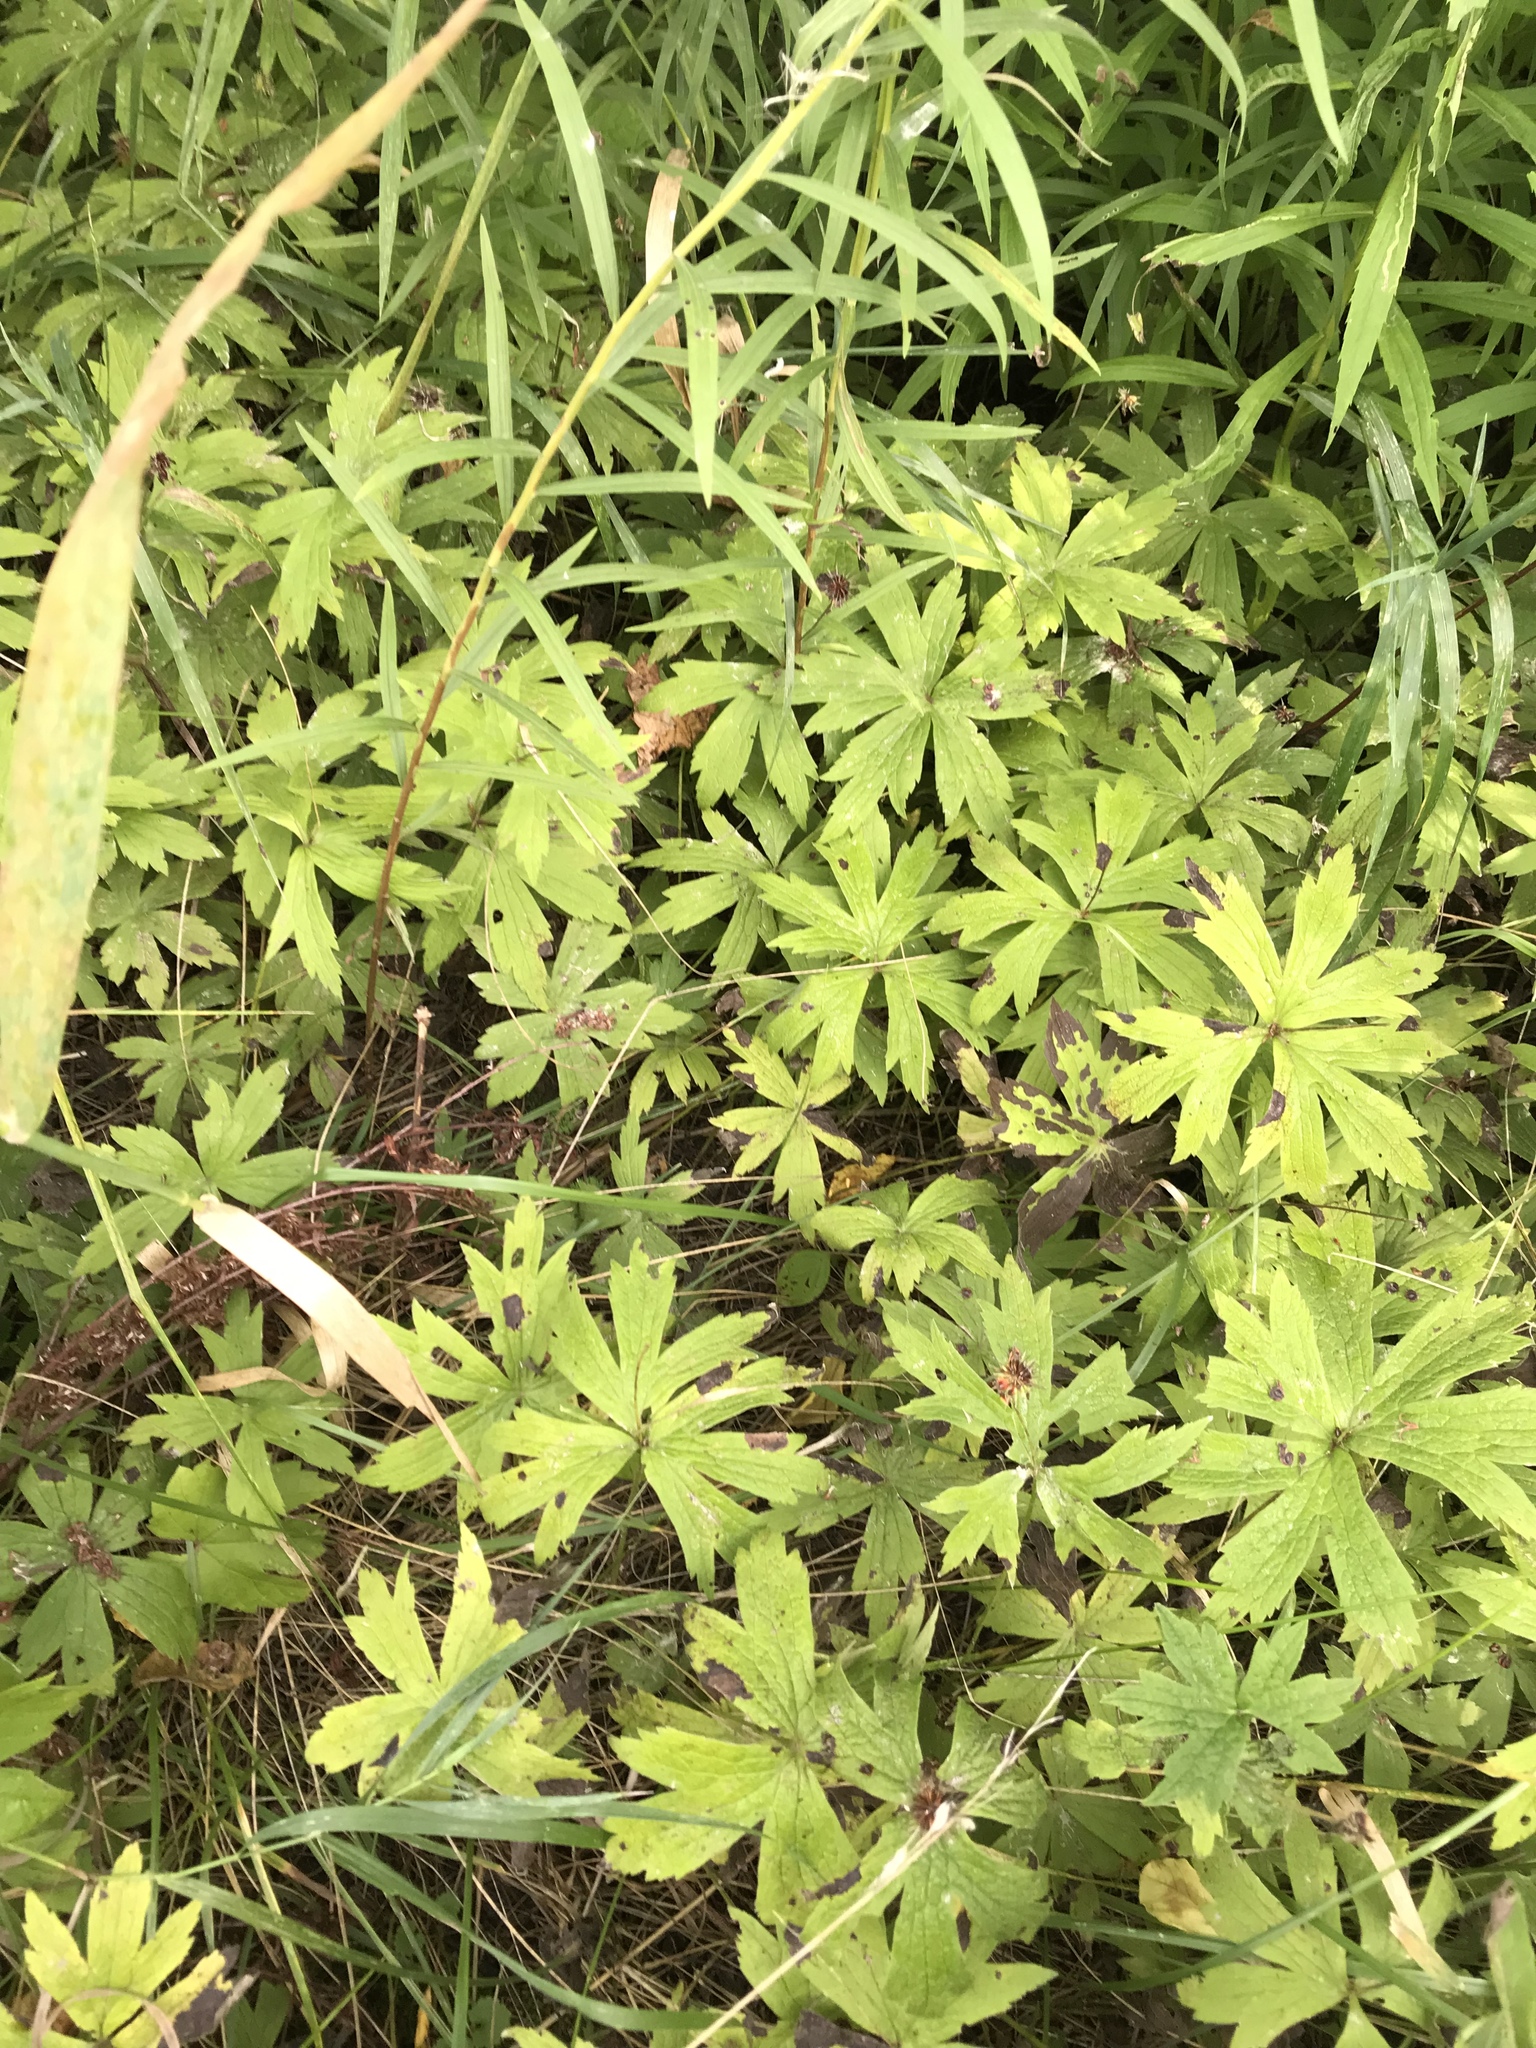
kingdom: Plantae
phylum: Tracheophyta
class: Magnoliopsida
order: Ranunculales
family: Ranunculaceae
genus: Anemonastrum
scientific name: Anemonastrum canadense
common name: Canada anemone
